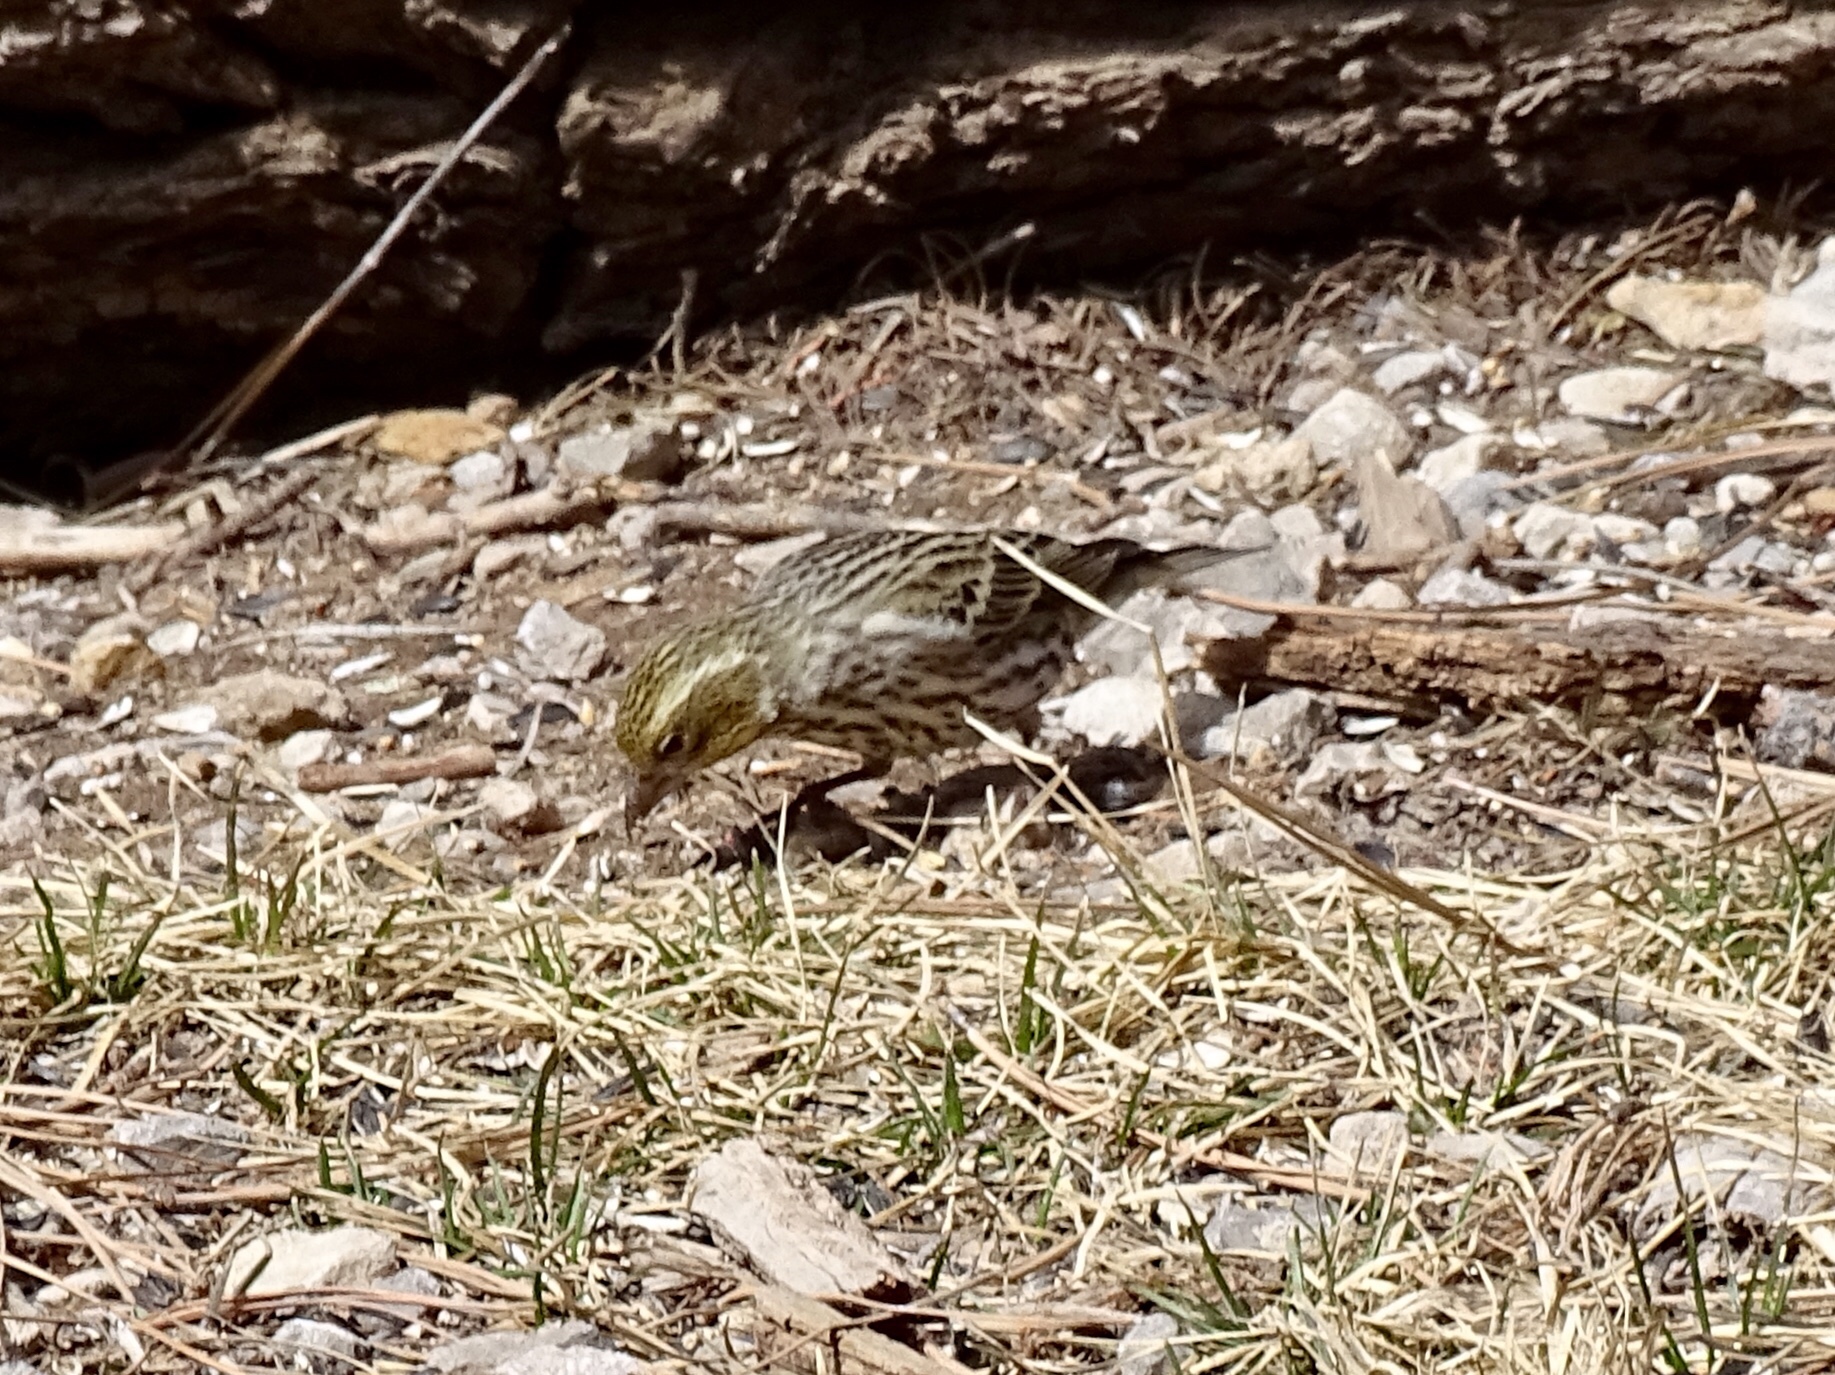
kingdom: Animalia
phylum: Chordata
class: Aves
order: Passeriformes
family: Fringillidae
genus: Haemorhous
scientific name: Haemorhous cassinii
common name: Cassin's finch
